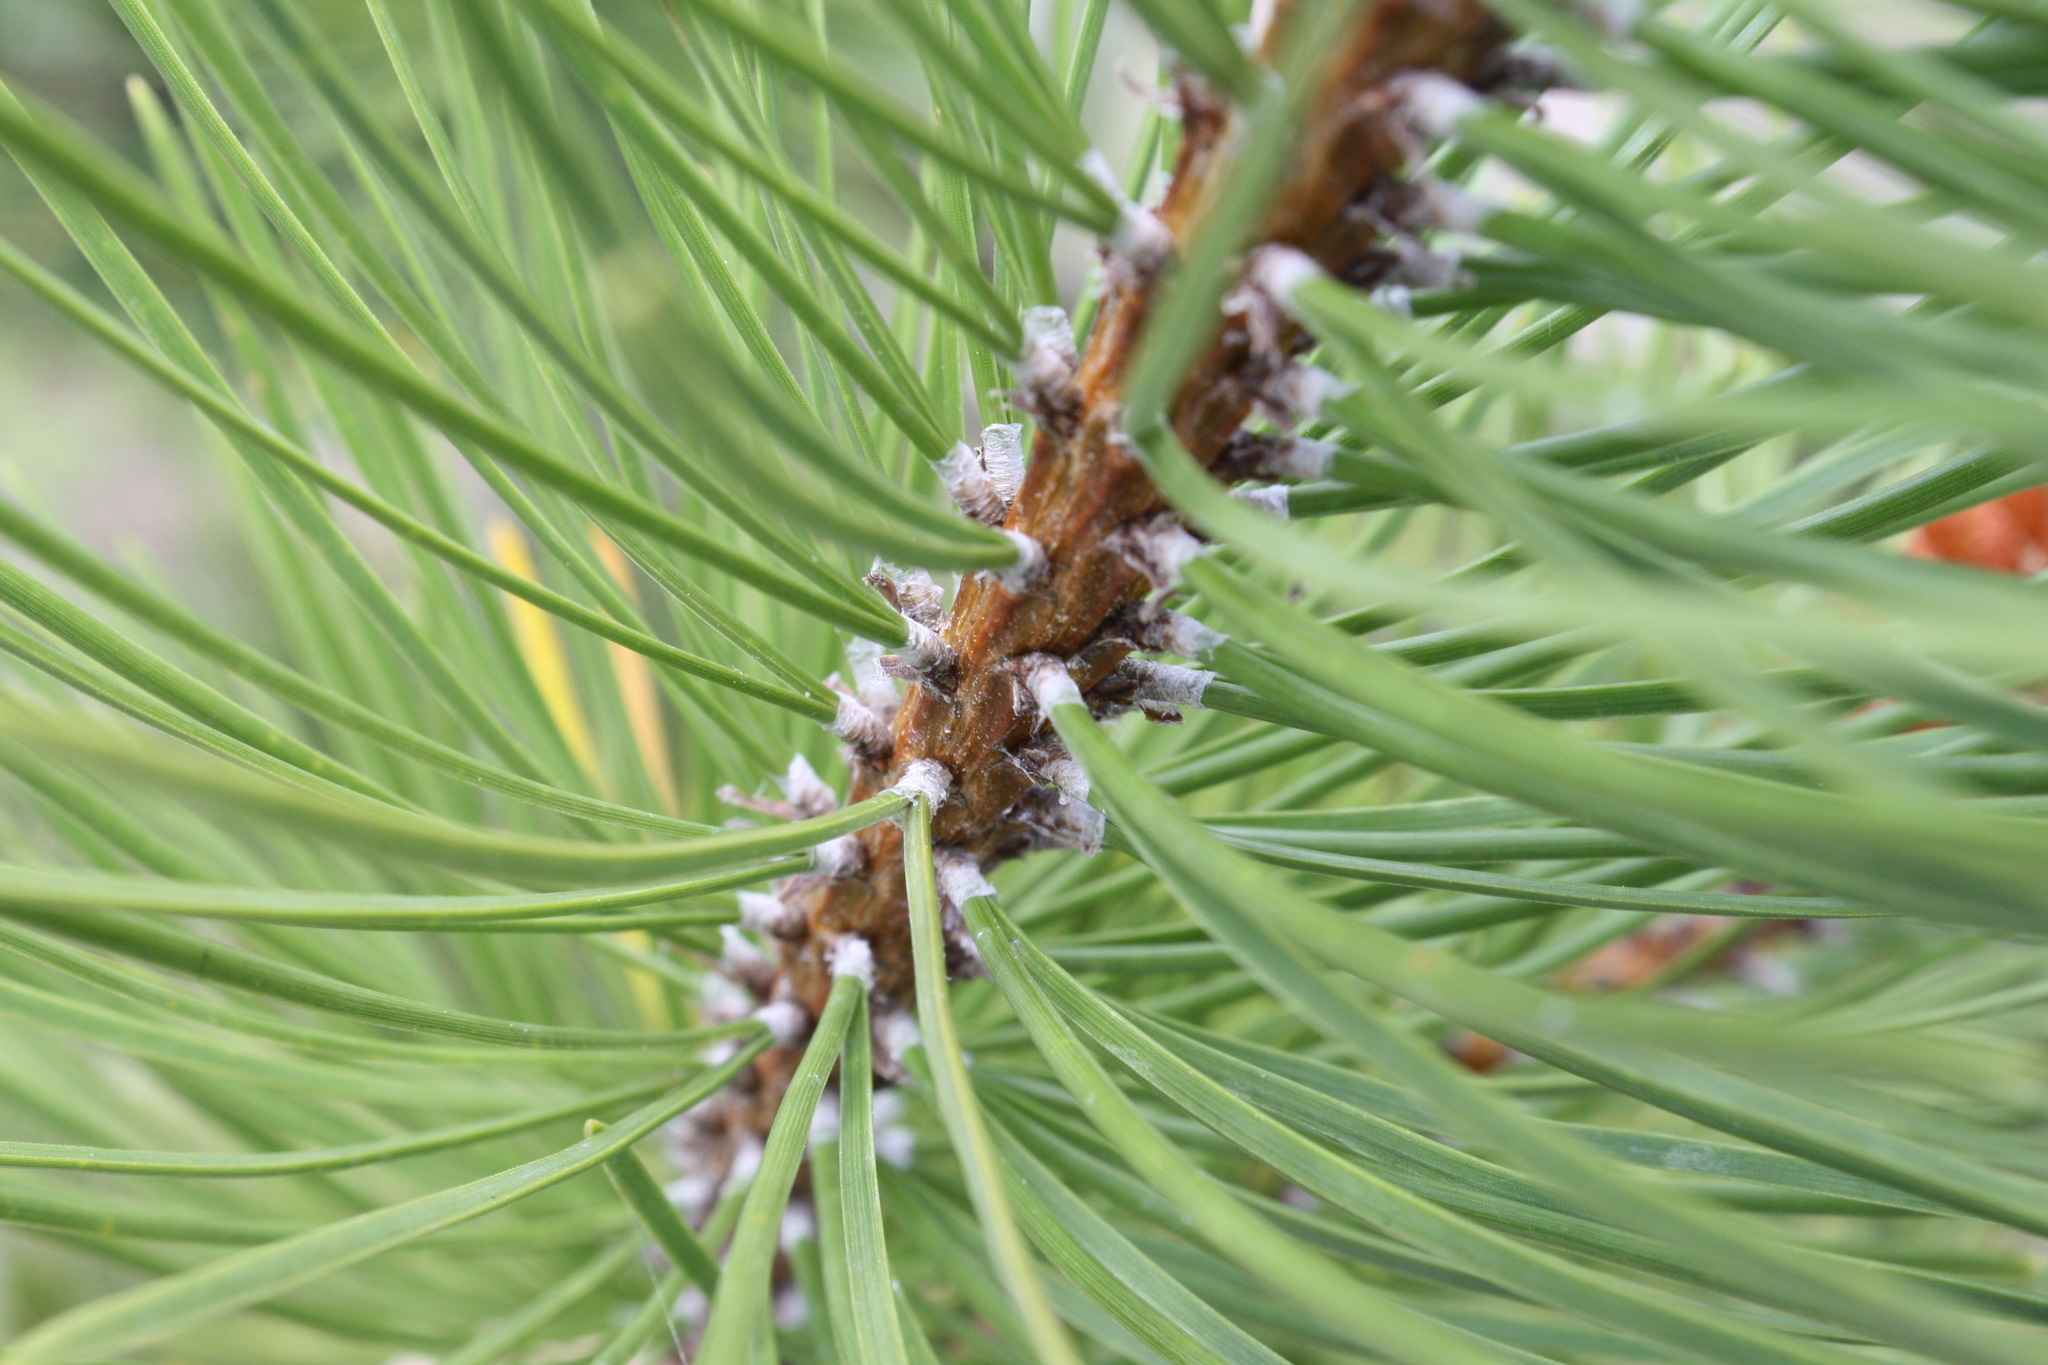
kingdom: Plantae
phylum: Tracheophyta
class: Pinopsida
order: Pinales
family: Pinaceae
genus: Pinus
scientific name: Pinus contorta
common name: Lodgepole pine
